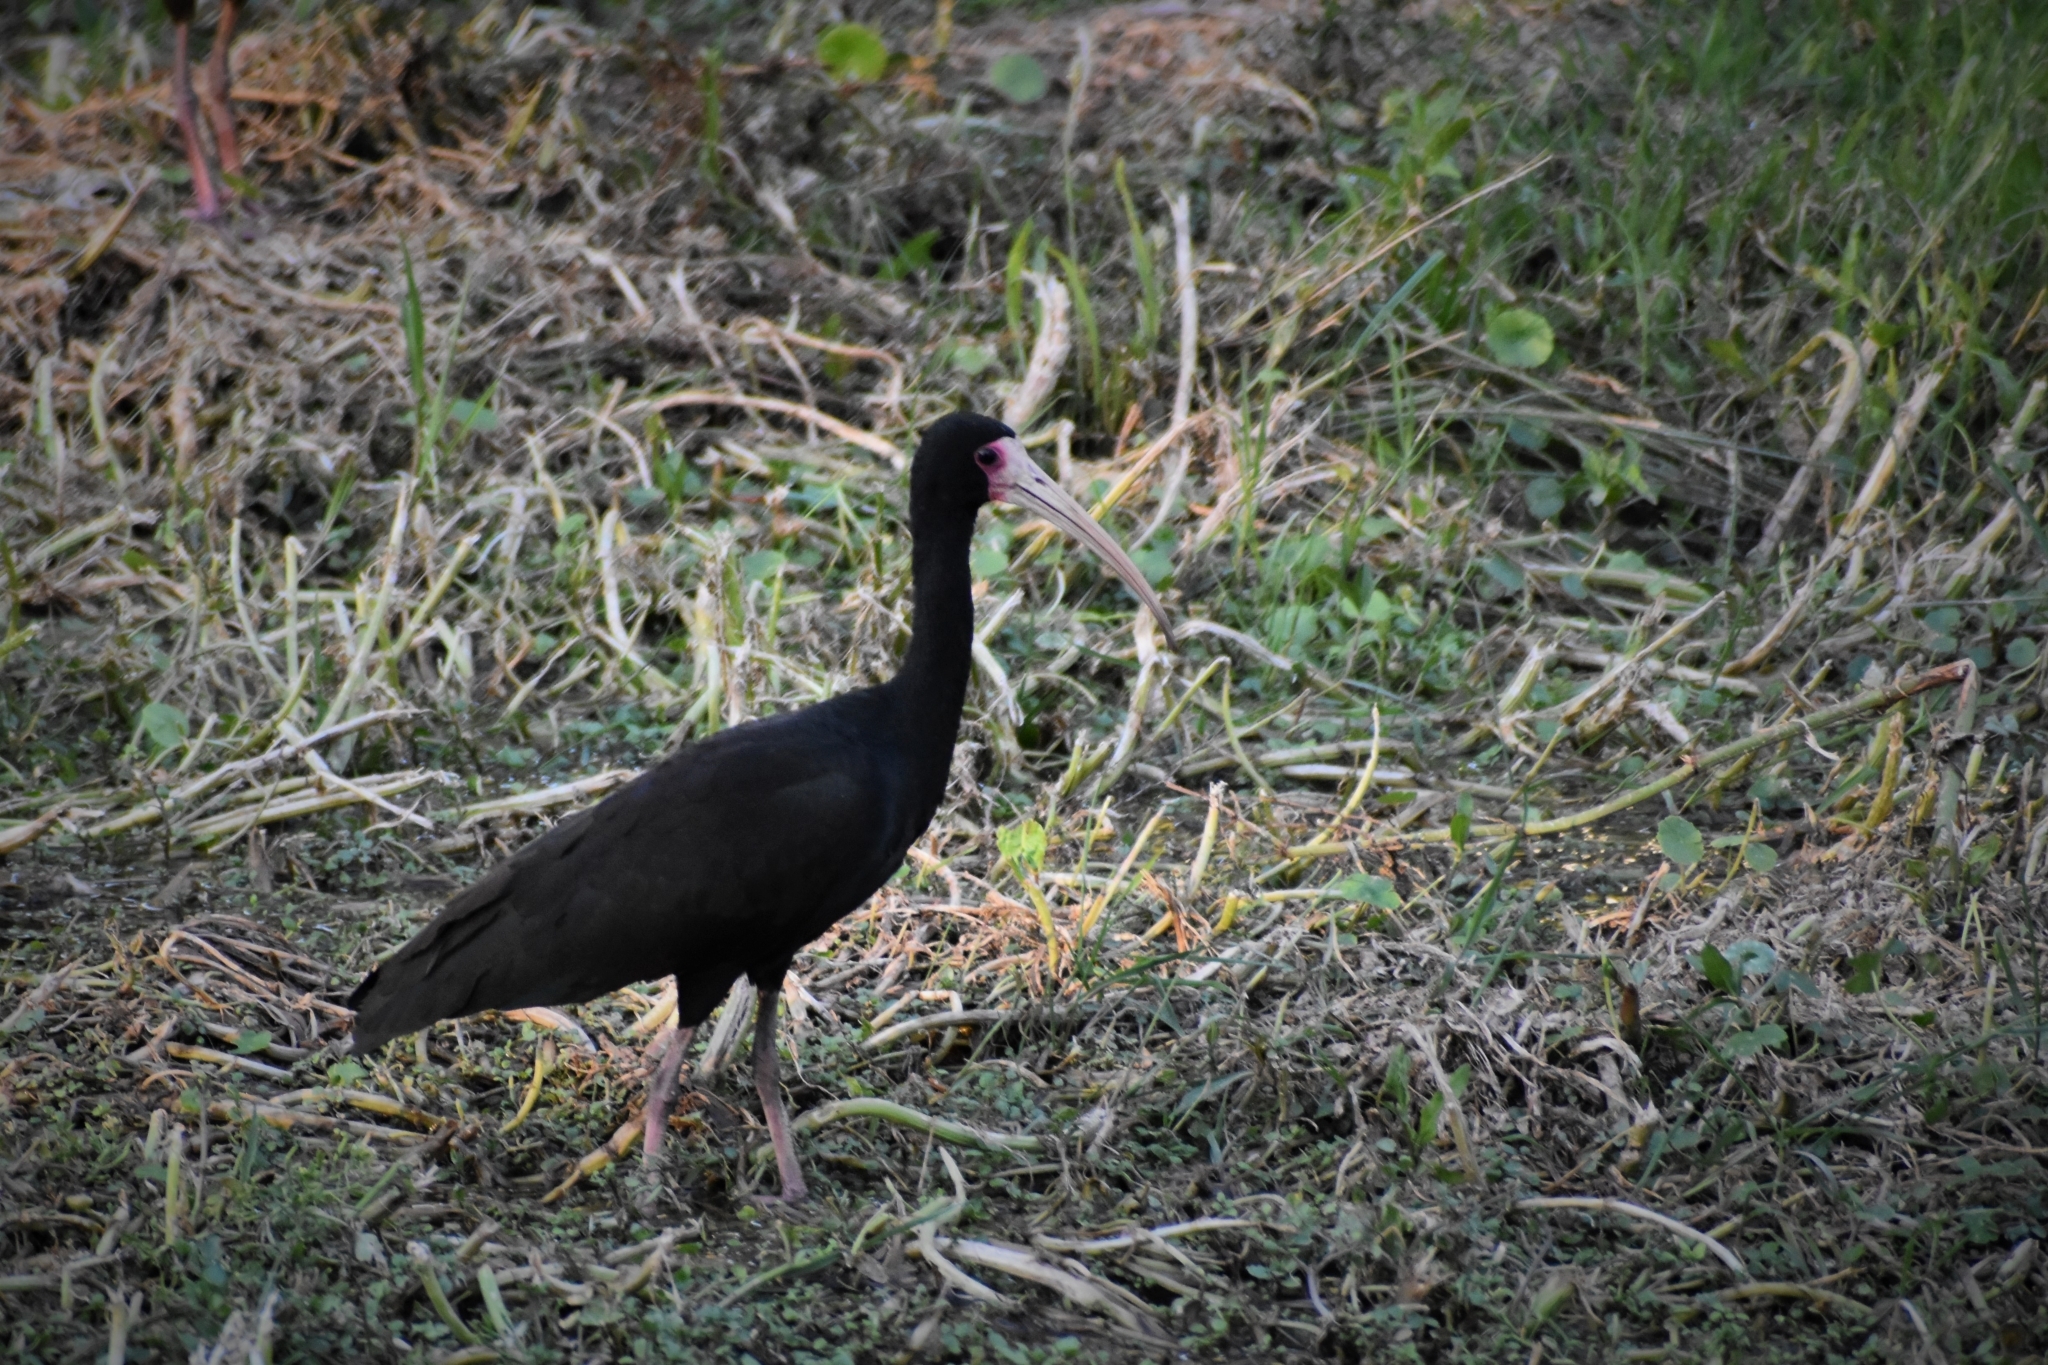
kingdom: Animalia
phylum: Chordata
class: Aves
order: Pelecaniformes
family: Threskiornithidae
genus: Phimosus
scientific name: Phimosus infuscatus
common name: Bare-faced ibis
